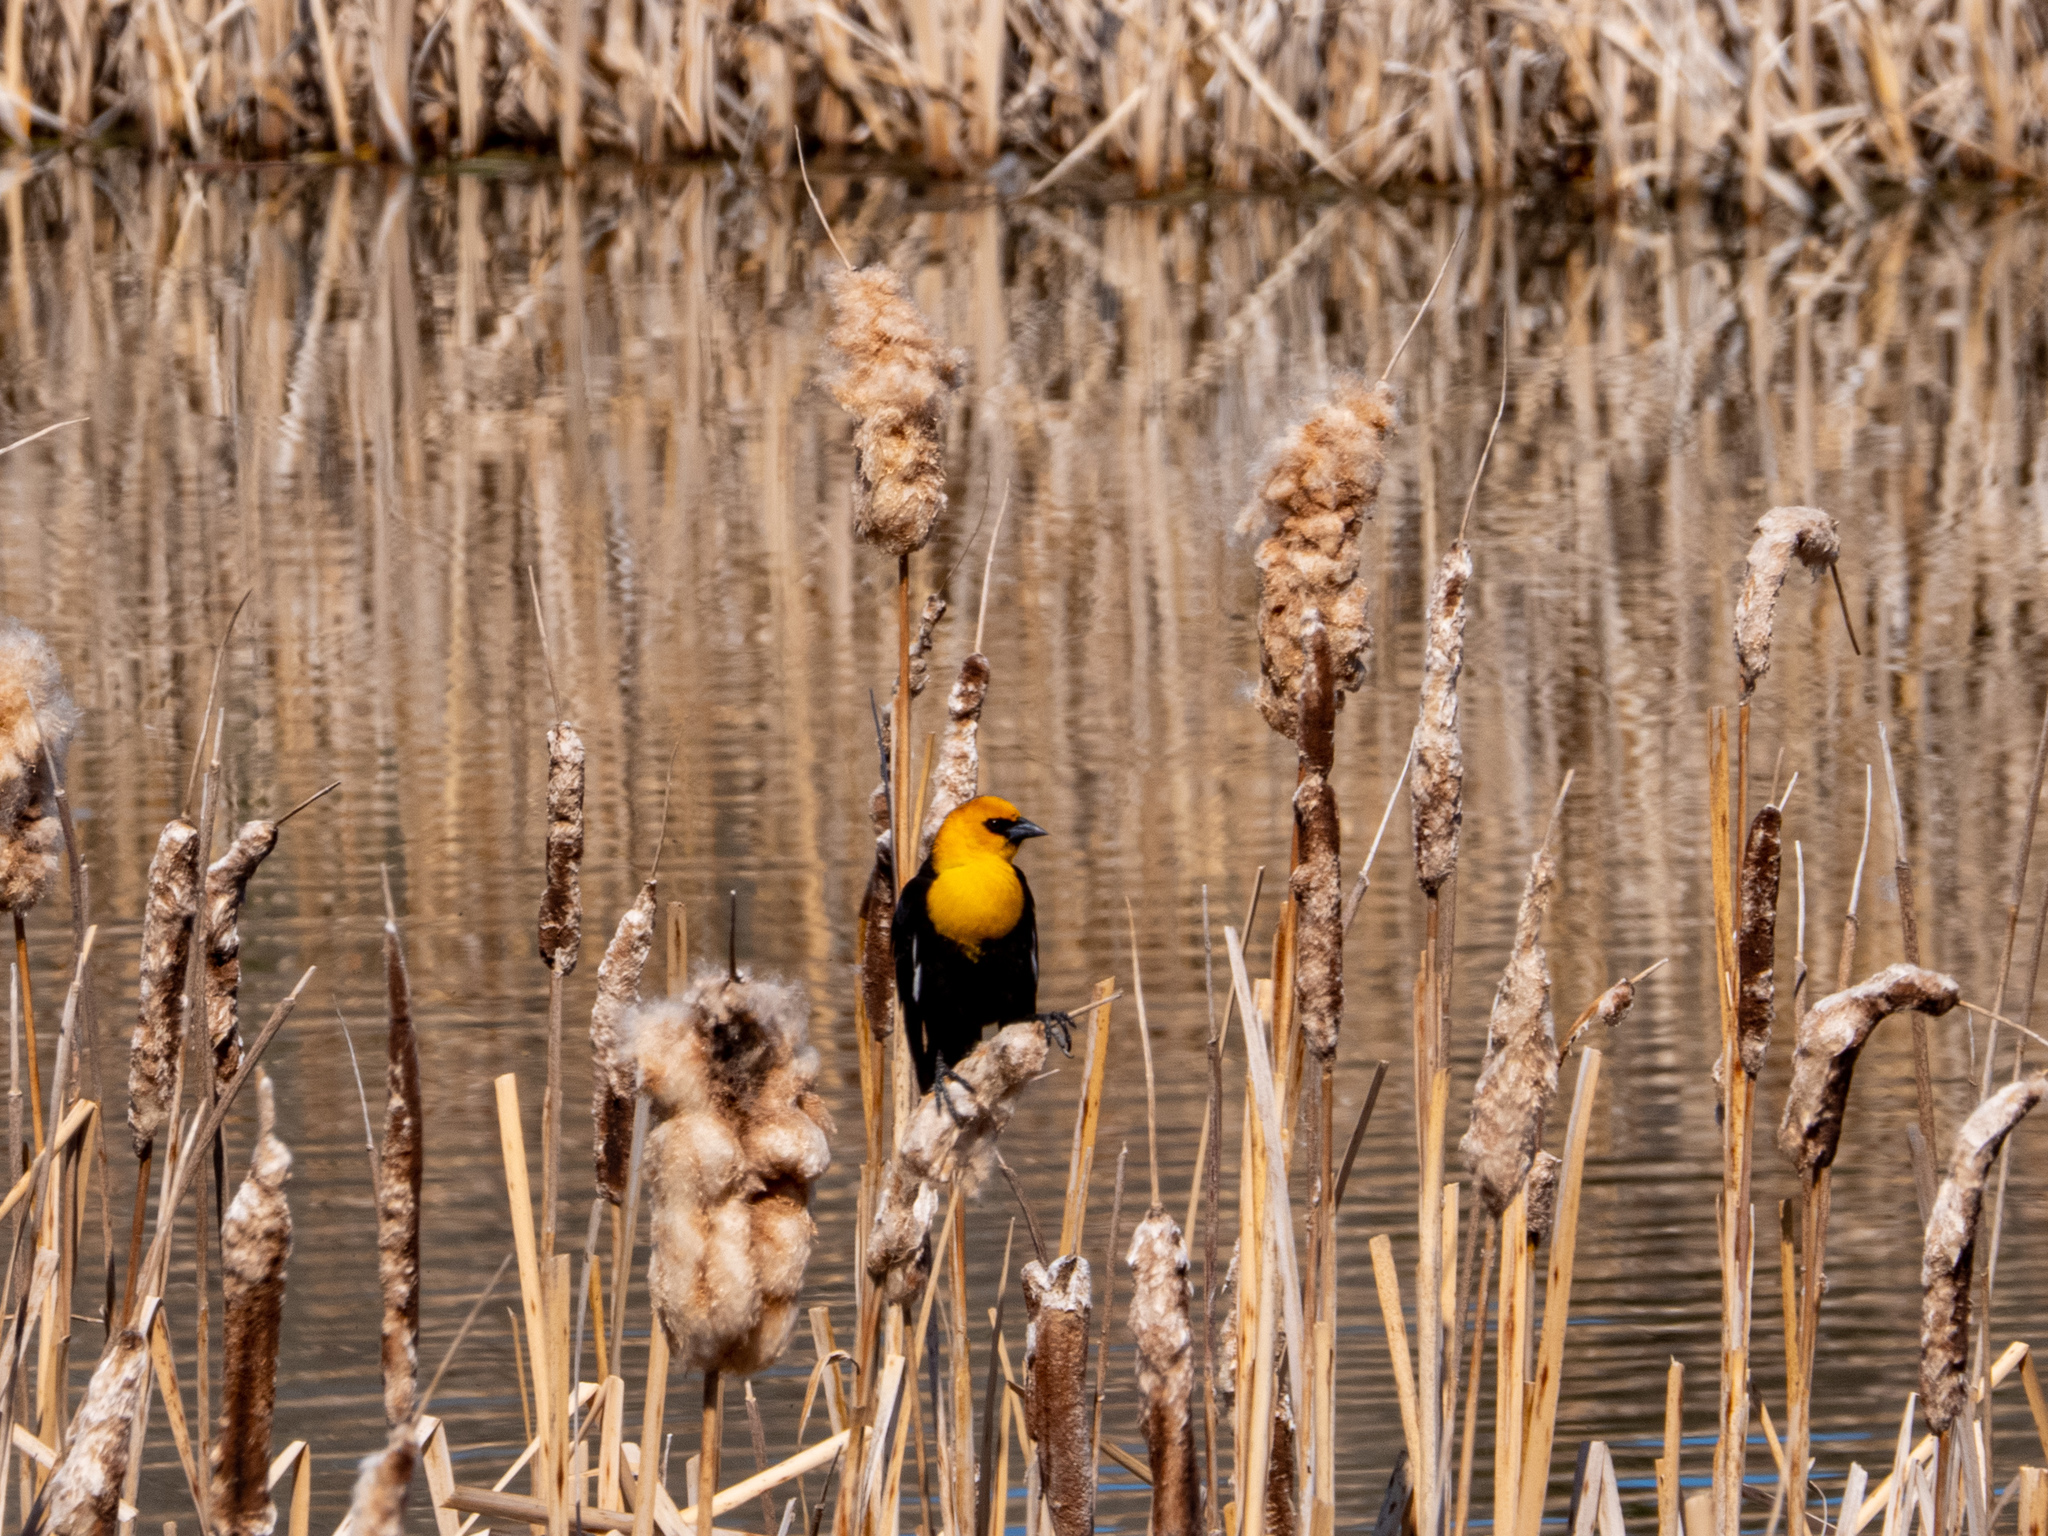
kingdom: Animalia
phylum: Chordata
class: Aves
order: Passeriformes
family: Icteridae
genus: Xanthocephalus
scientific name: Xanthocephalus xanthocephalus
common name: Yellow-headed blackbird
